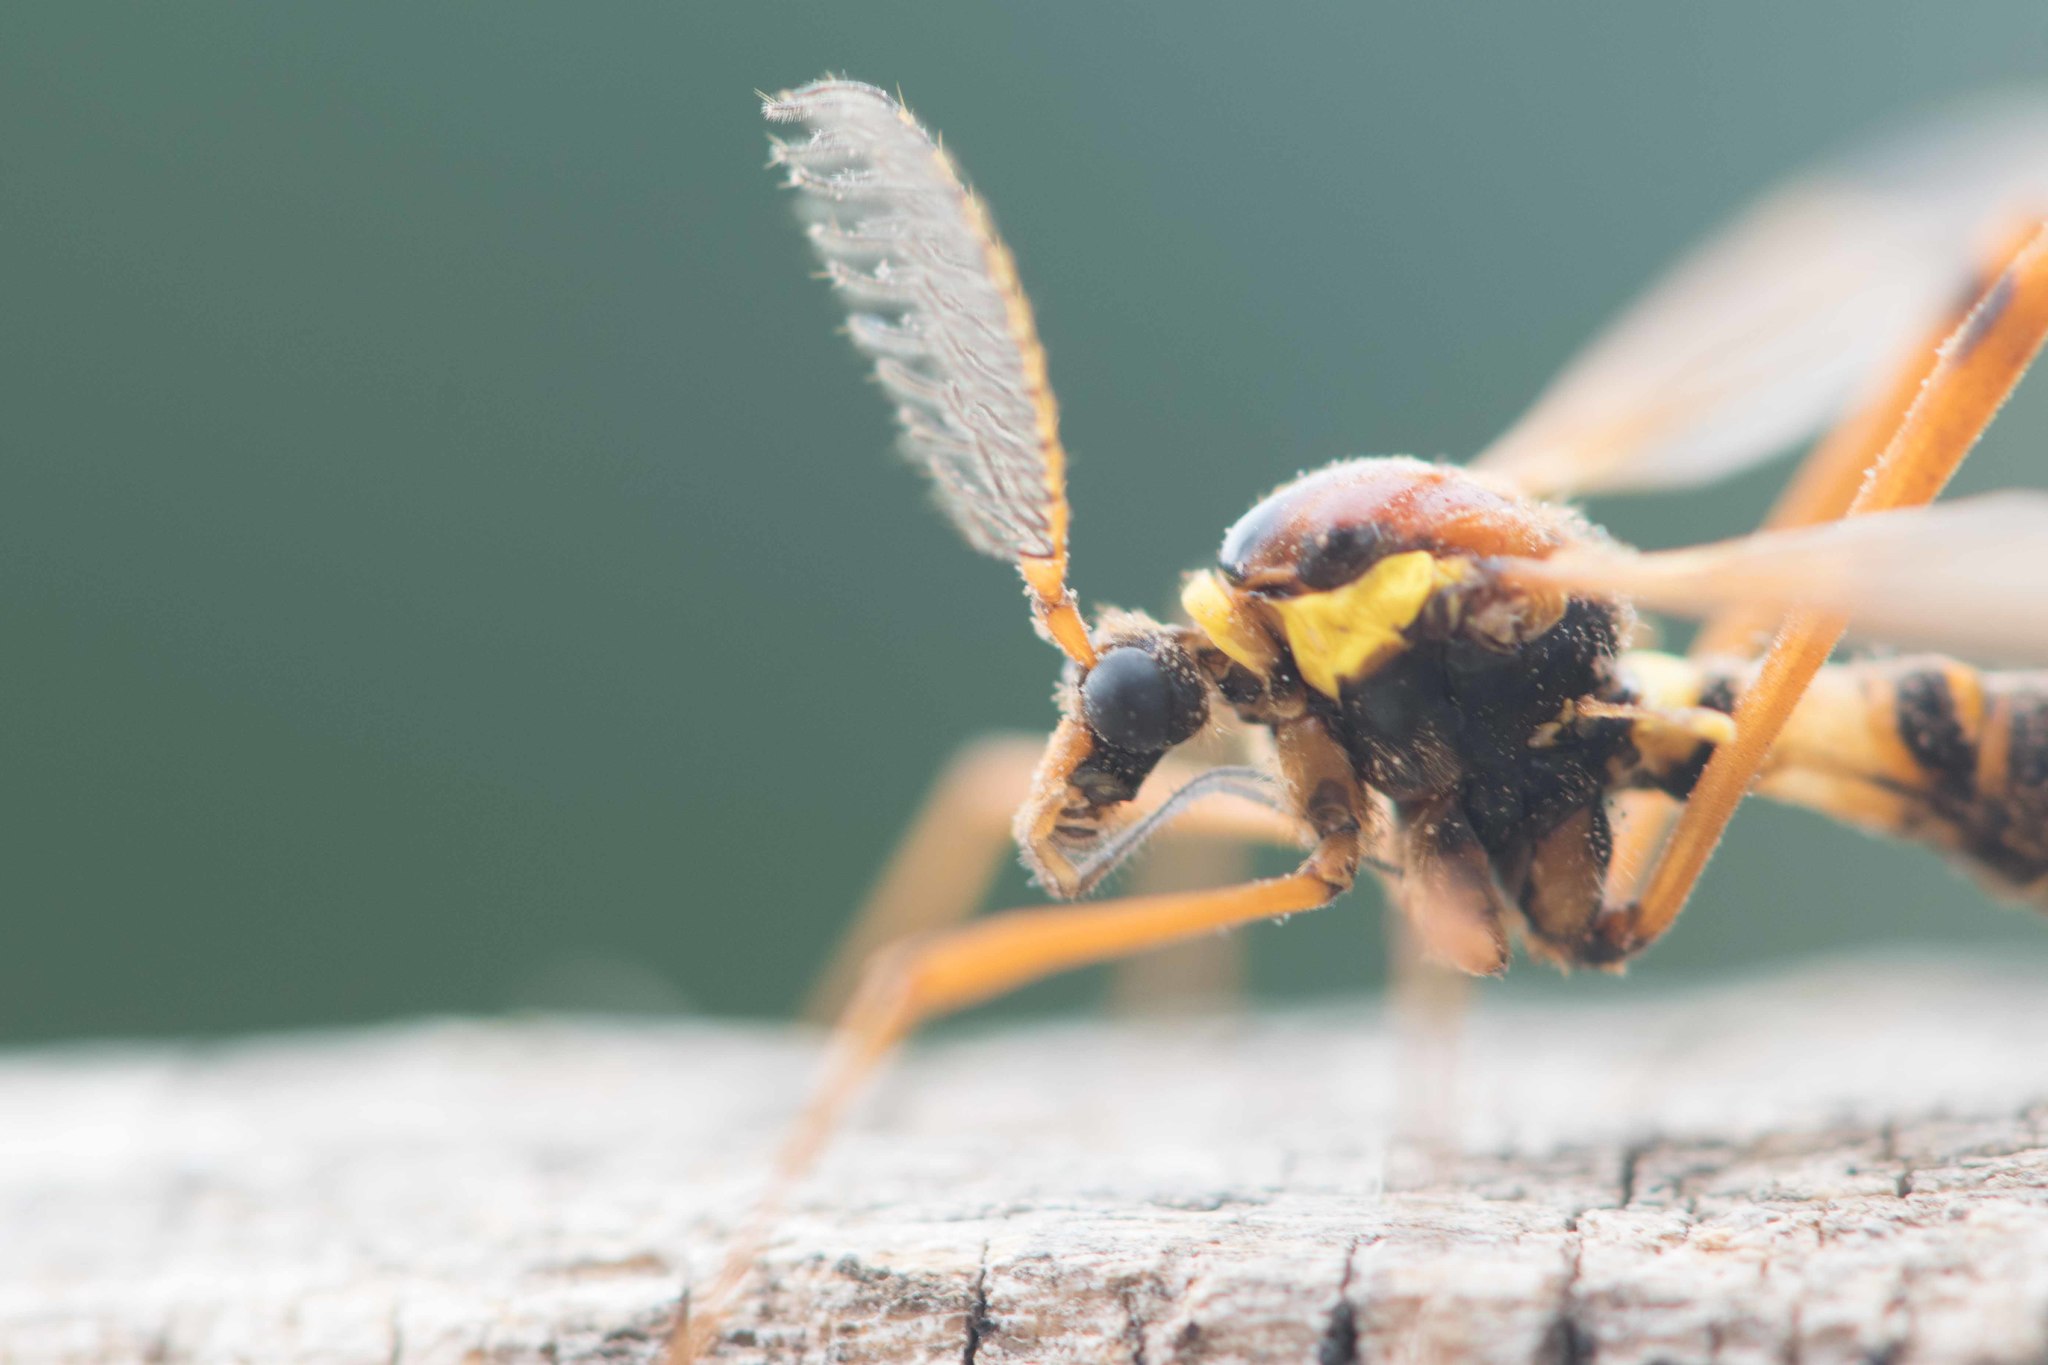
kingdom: Animalia
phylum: Arthropoda
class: Insecta
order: Diptera
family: Tipulidae
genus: Ctenophora
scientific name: Ctenophora ornata
